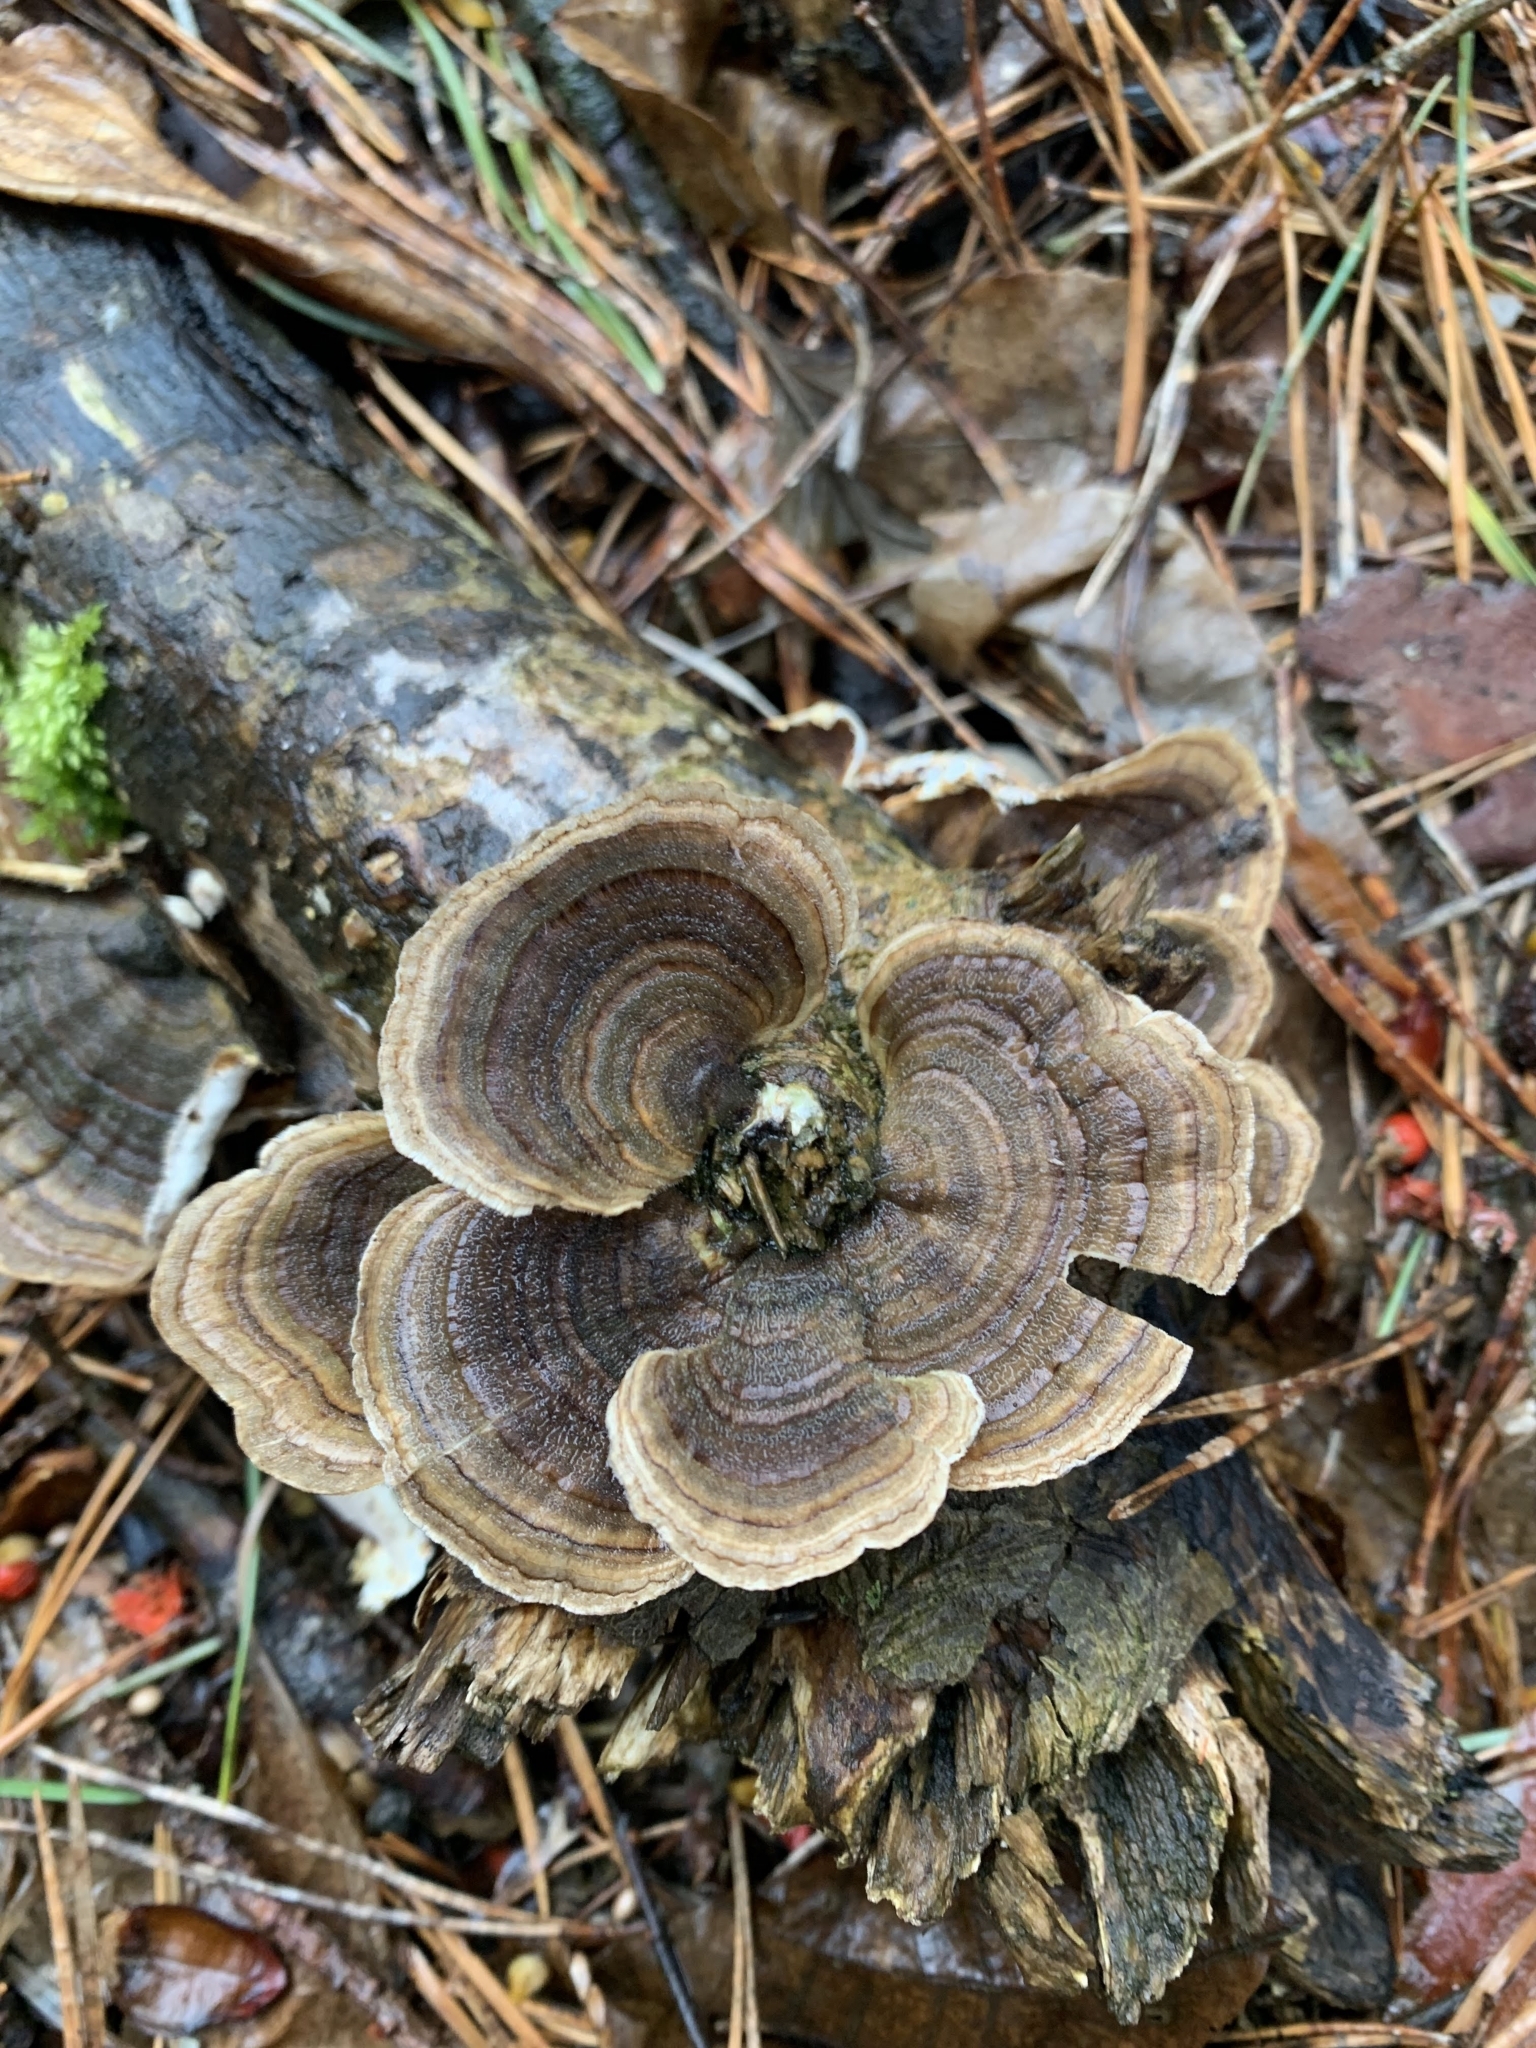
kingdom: Fungi
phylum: Basidiomycota
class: Agaricomycetes
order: Polyporales
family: Polyporaceae
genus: Trametes
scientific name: Trametes versicolor
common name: Turkeytail
